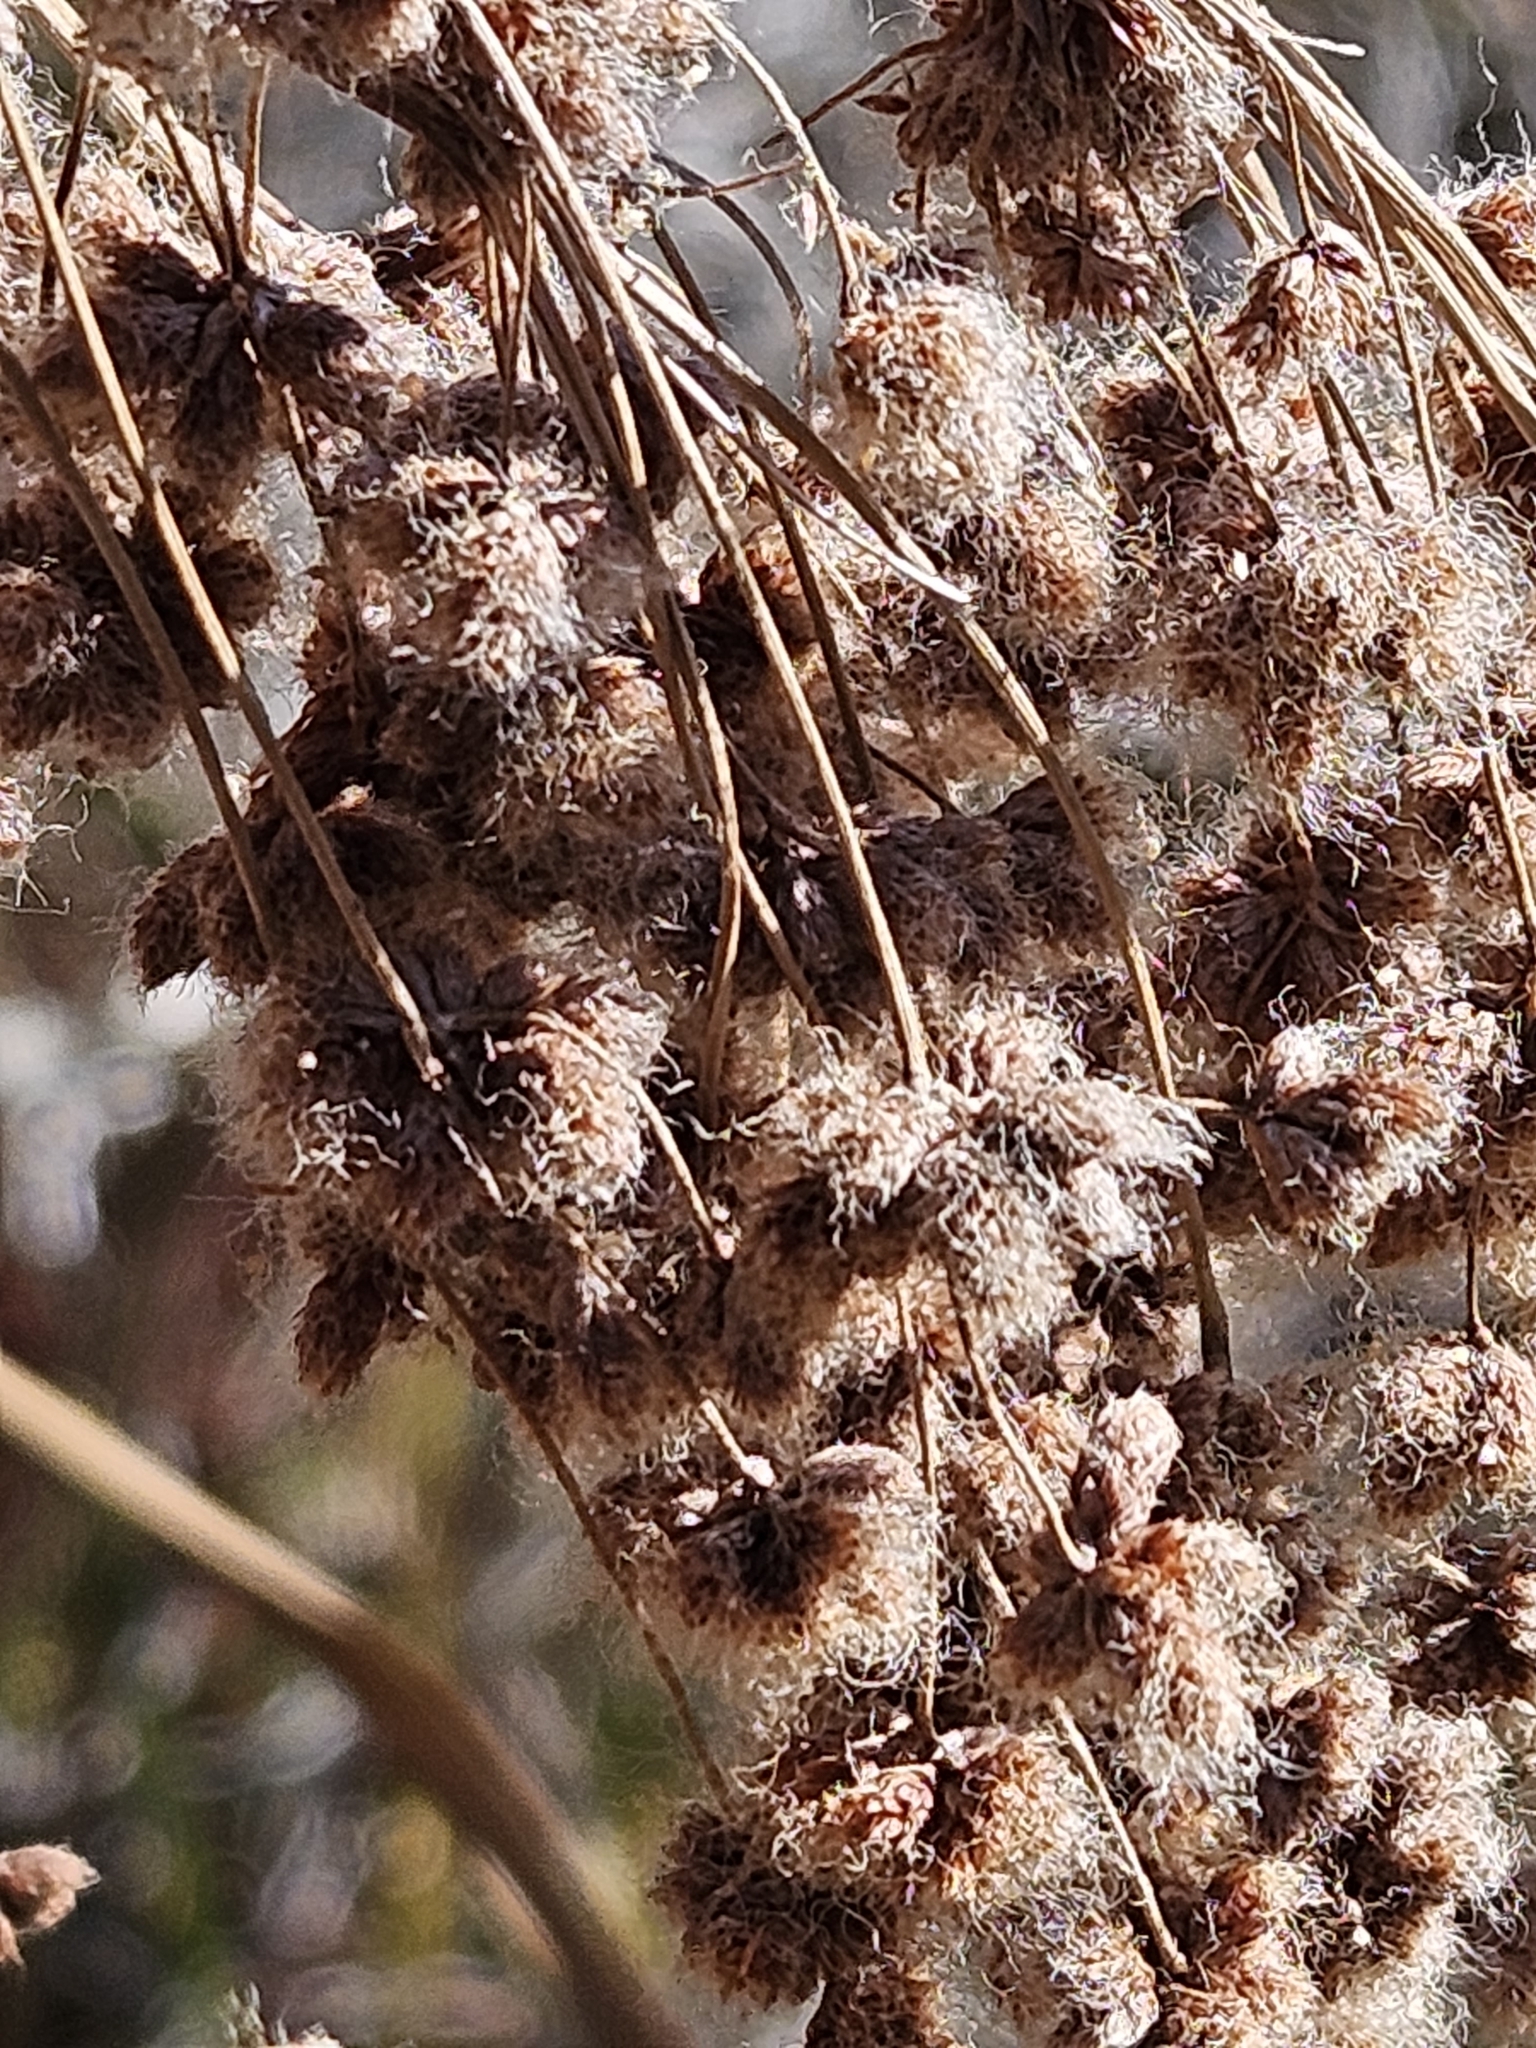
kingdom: Plantae
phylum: Tracheophyta
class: Liliopsida
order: Poales
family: Cyperaceae
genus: Scirpus
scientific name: Scirpus cyperinus
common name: Black-sheathed bulrush
